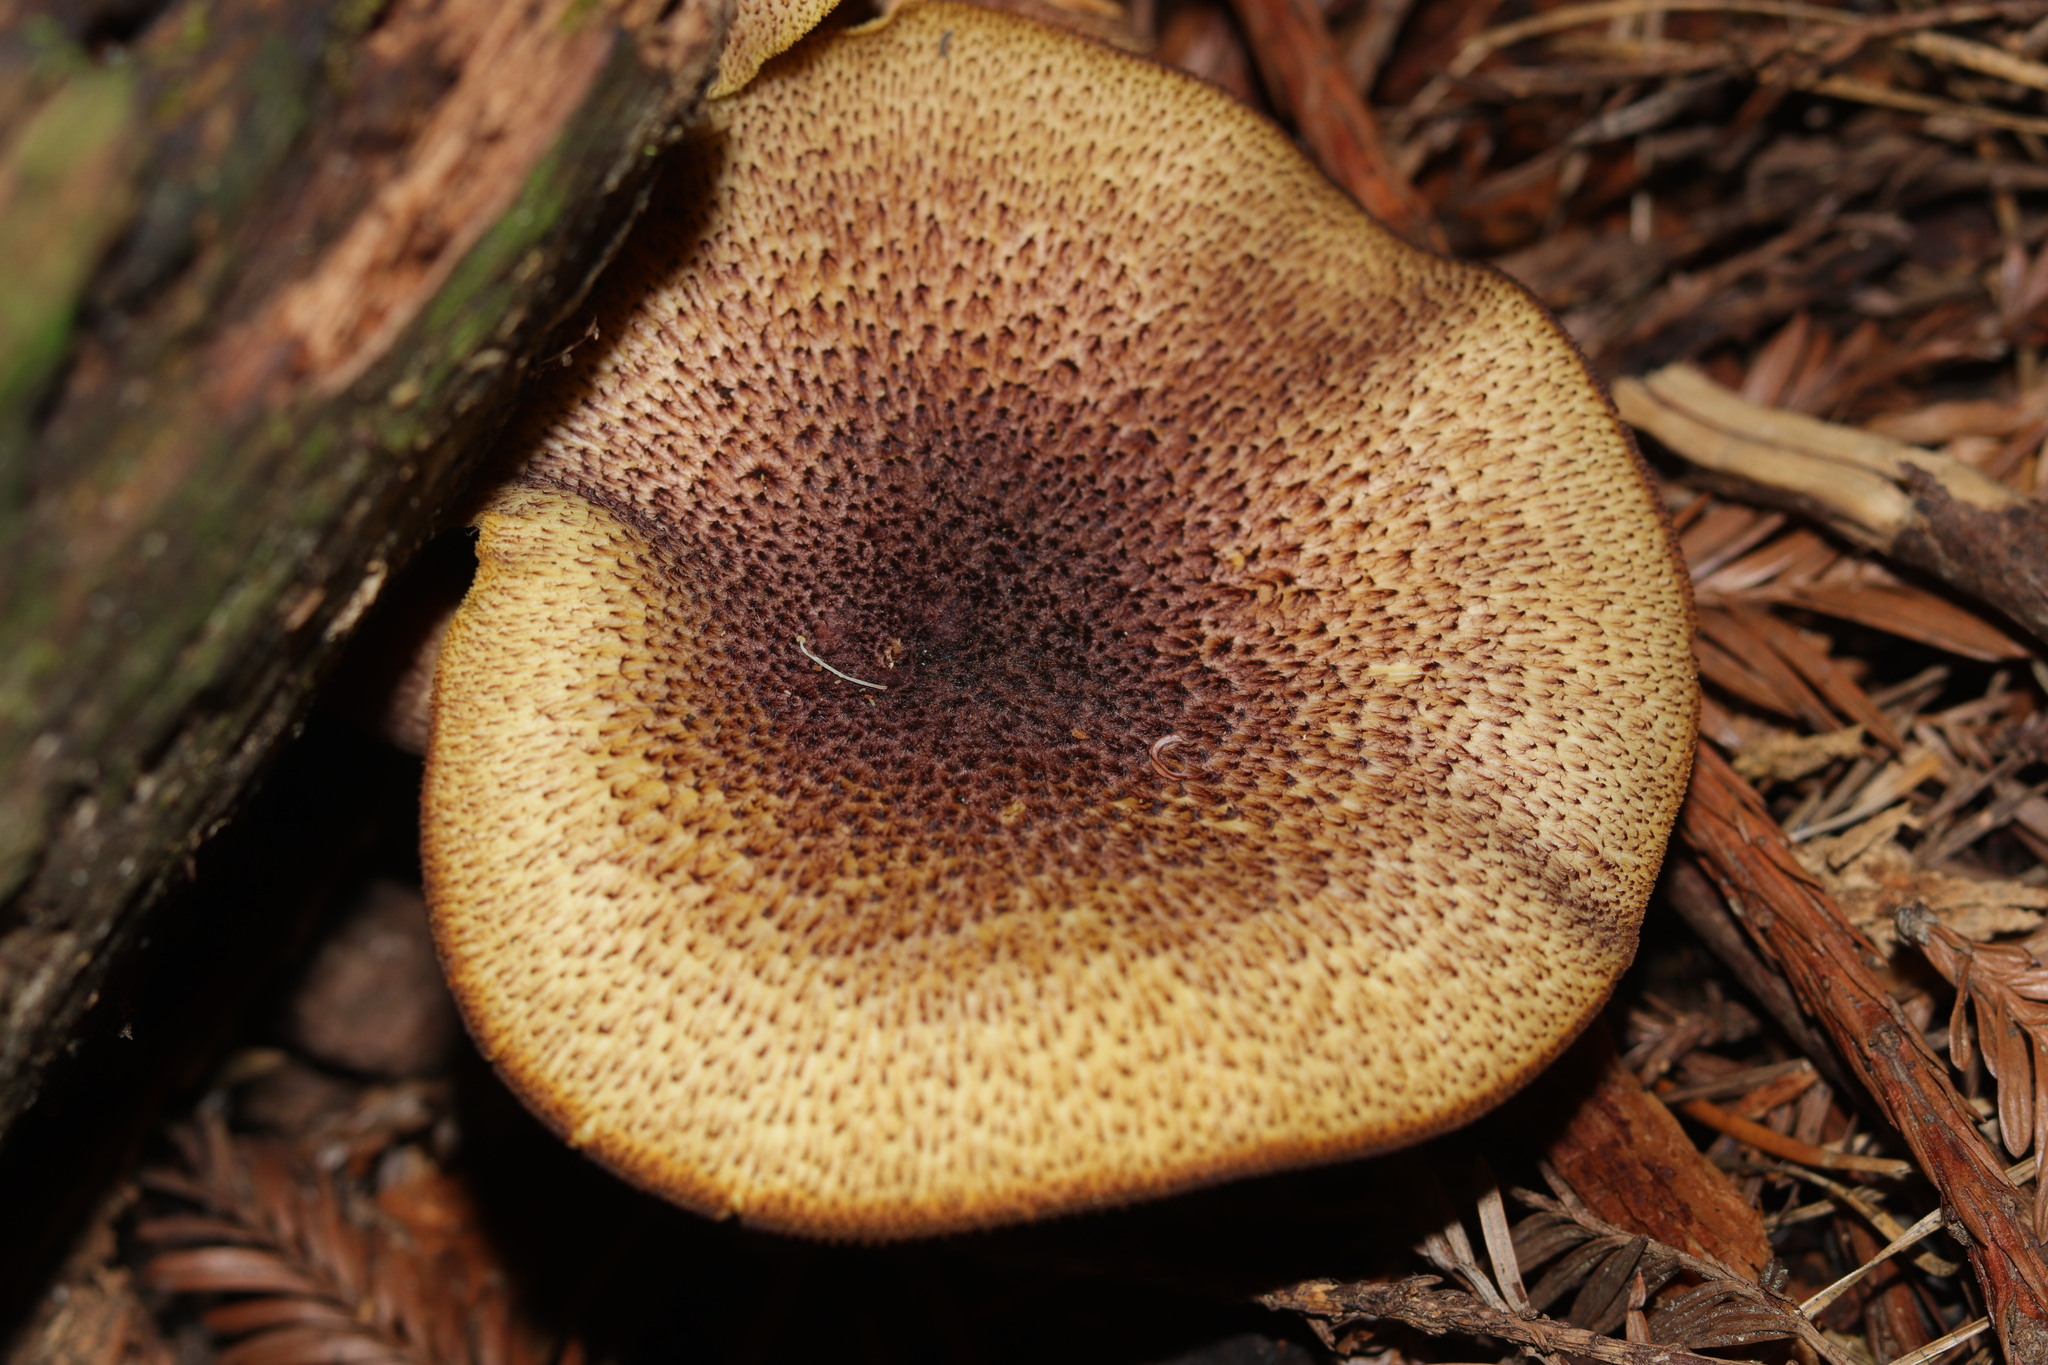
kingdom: Fungi
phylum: Basidiomycota
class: Agaricomycetes
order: Agaricales
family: Tricholomataceae
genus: Tricholomopsis
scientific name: Tricholomopsis ornaticeps
